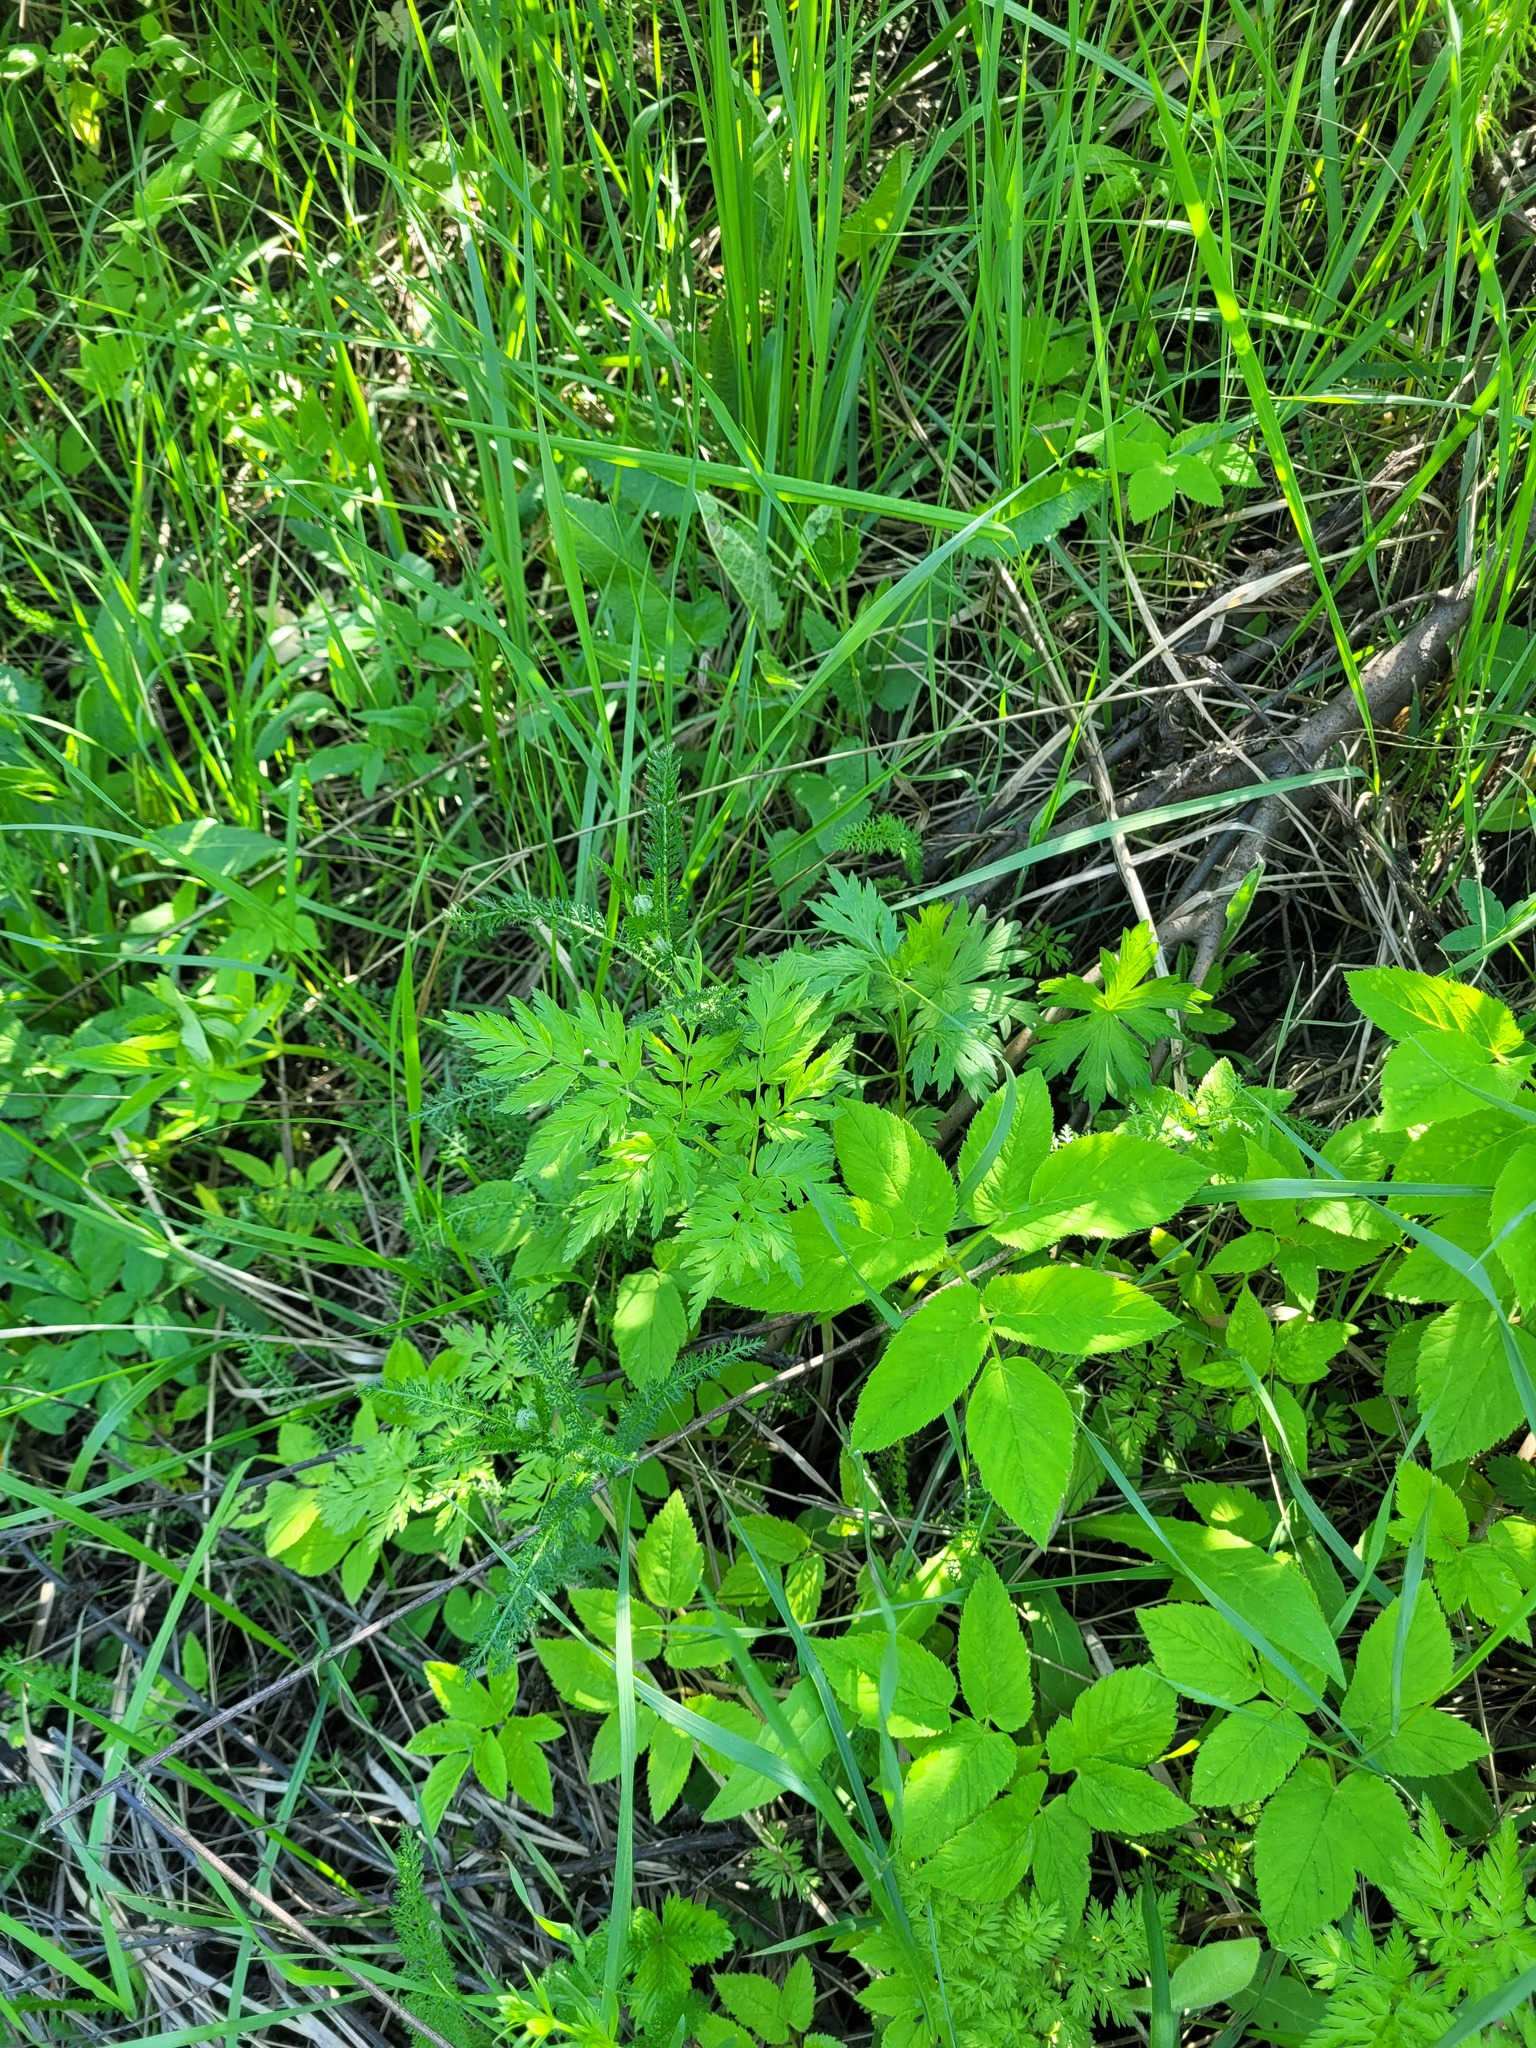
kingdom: Plantae
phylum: Tracheophyta
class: Magnoliopsida
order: Apiales
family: Apiaceae
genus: Anthriscus
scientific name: Anthriscus sylvestris
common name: Cow parsley
